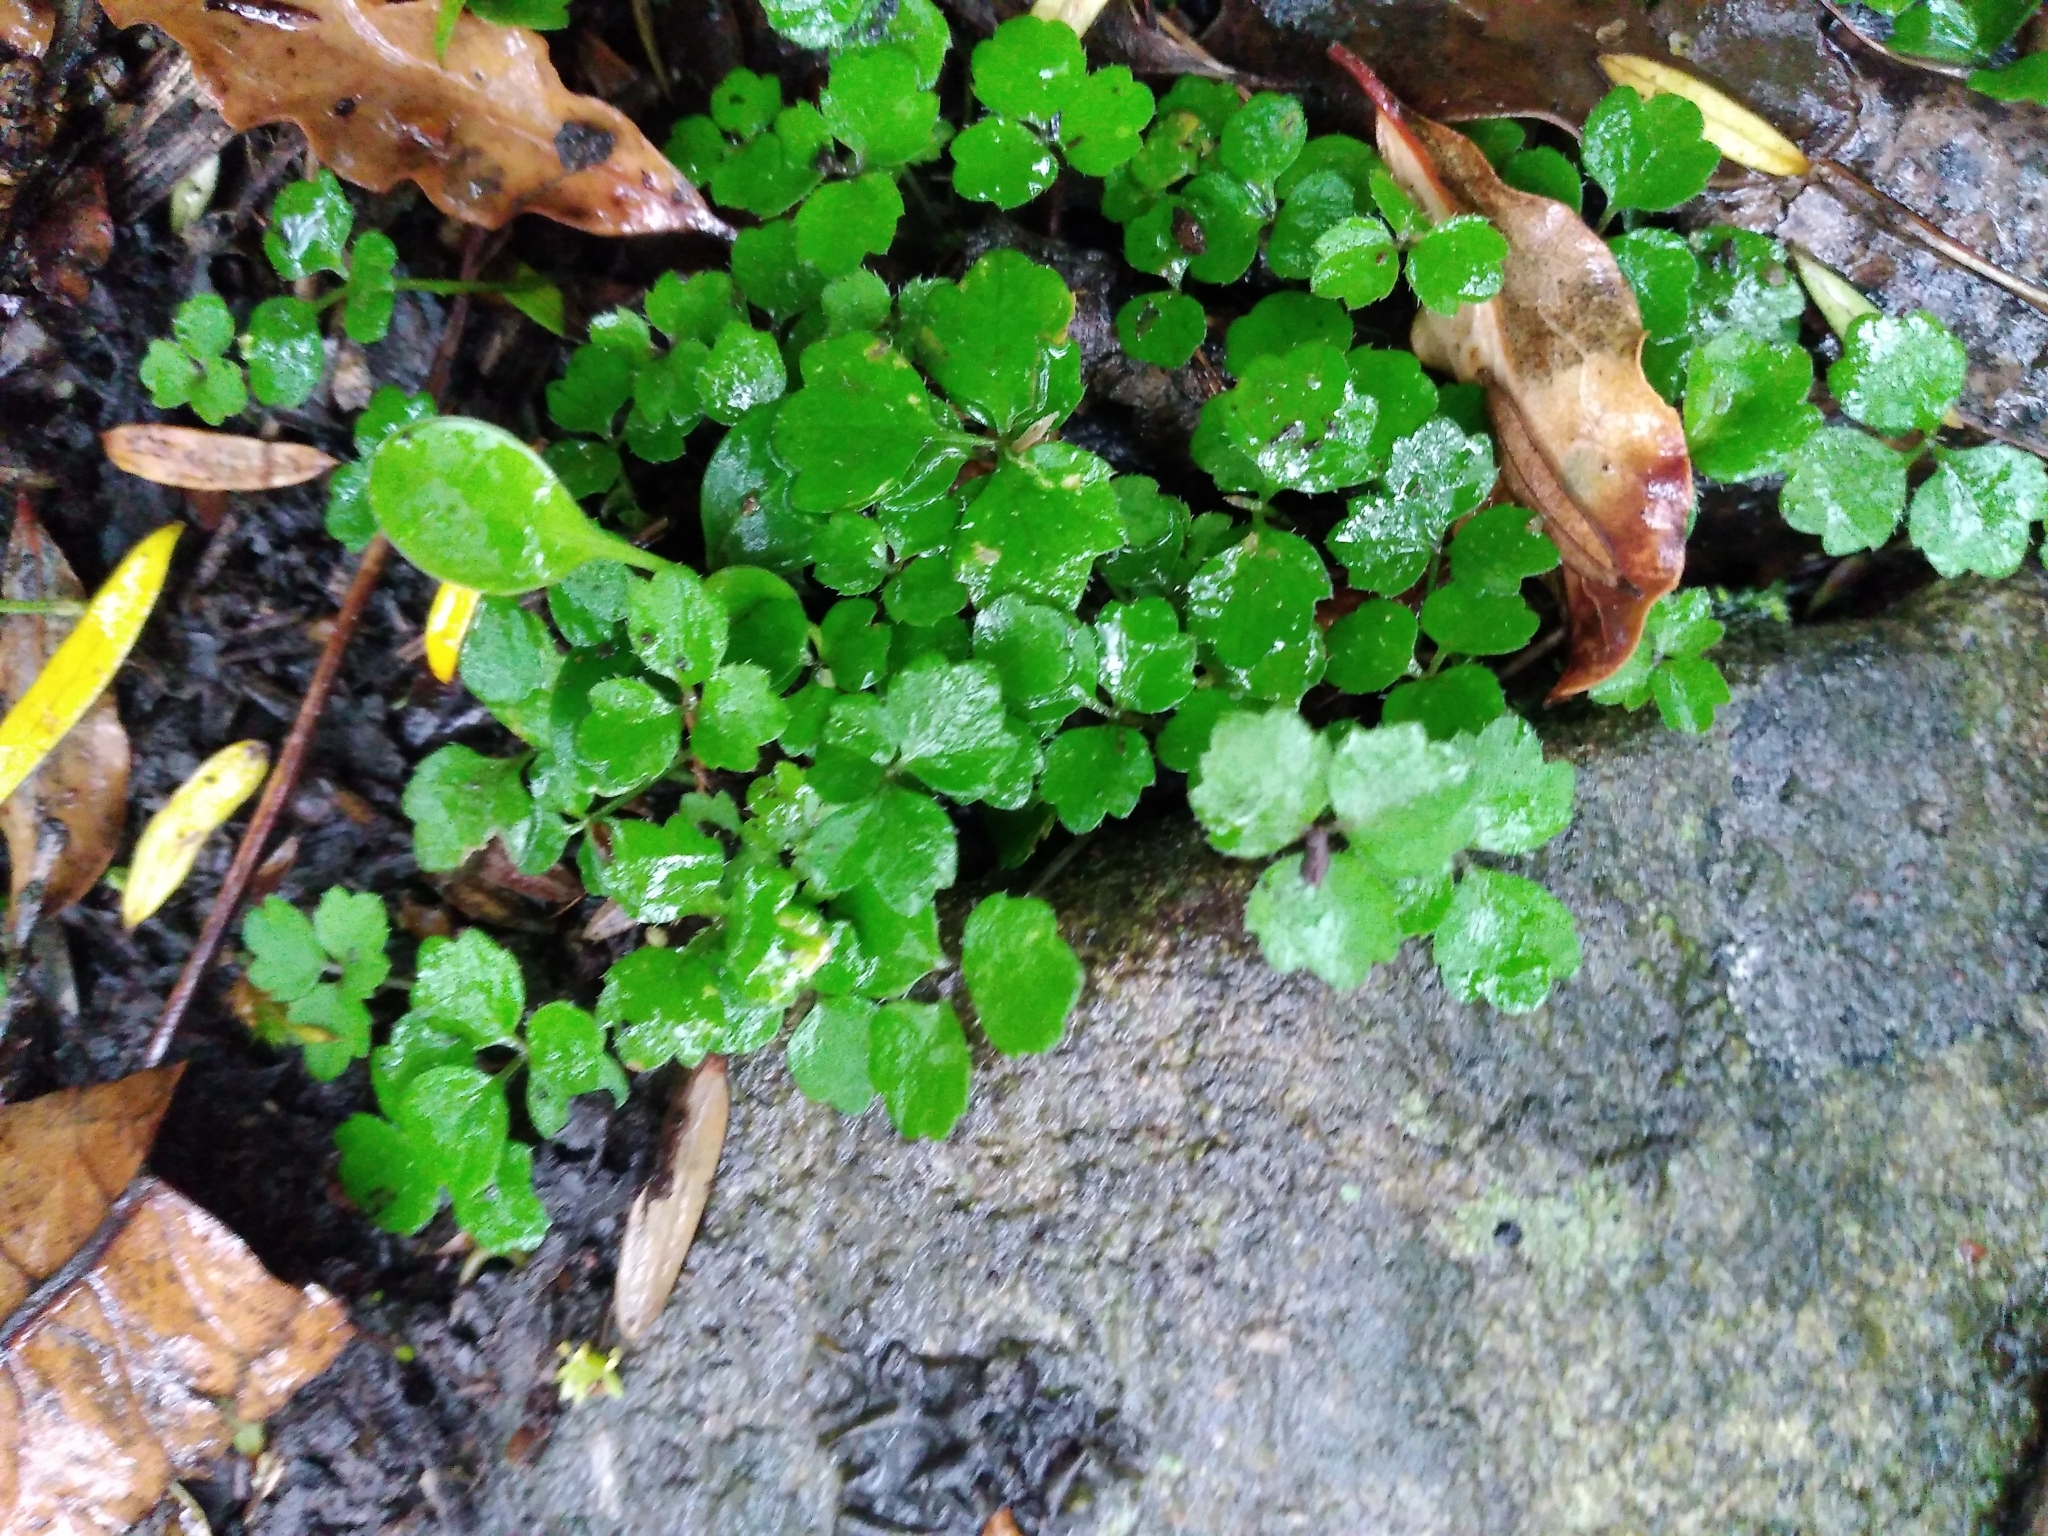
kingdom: Plantae
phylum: Tracheophyta
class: Magnoliopsida
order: Apiales
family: Apiaceae
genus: Azorella
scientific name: Azorella hookeri
